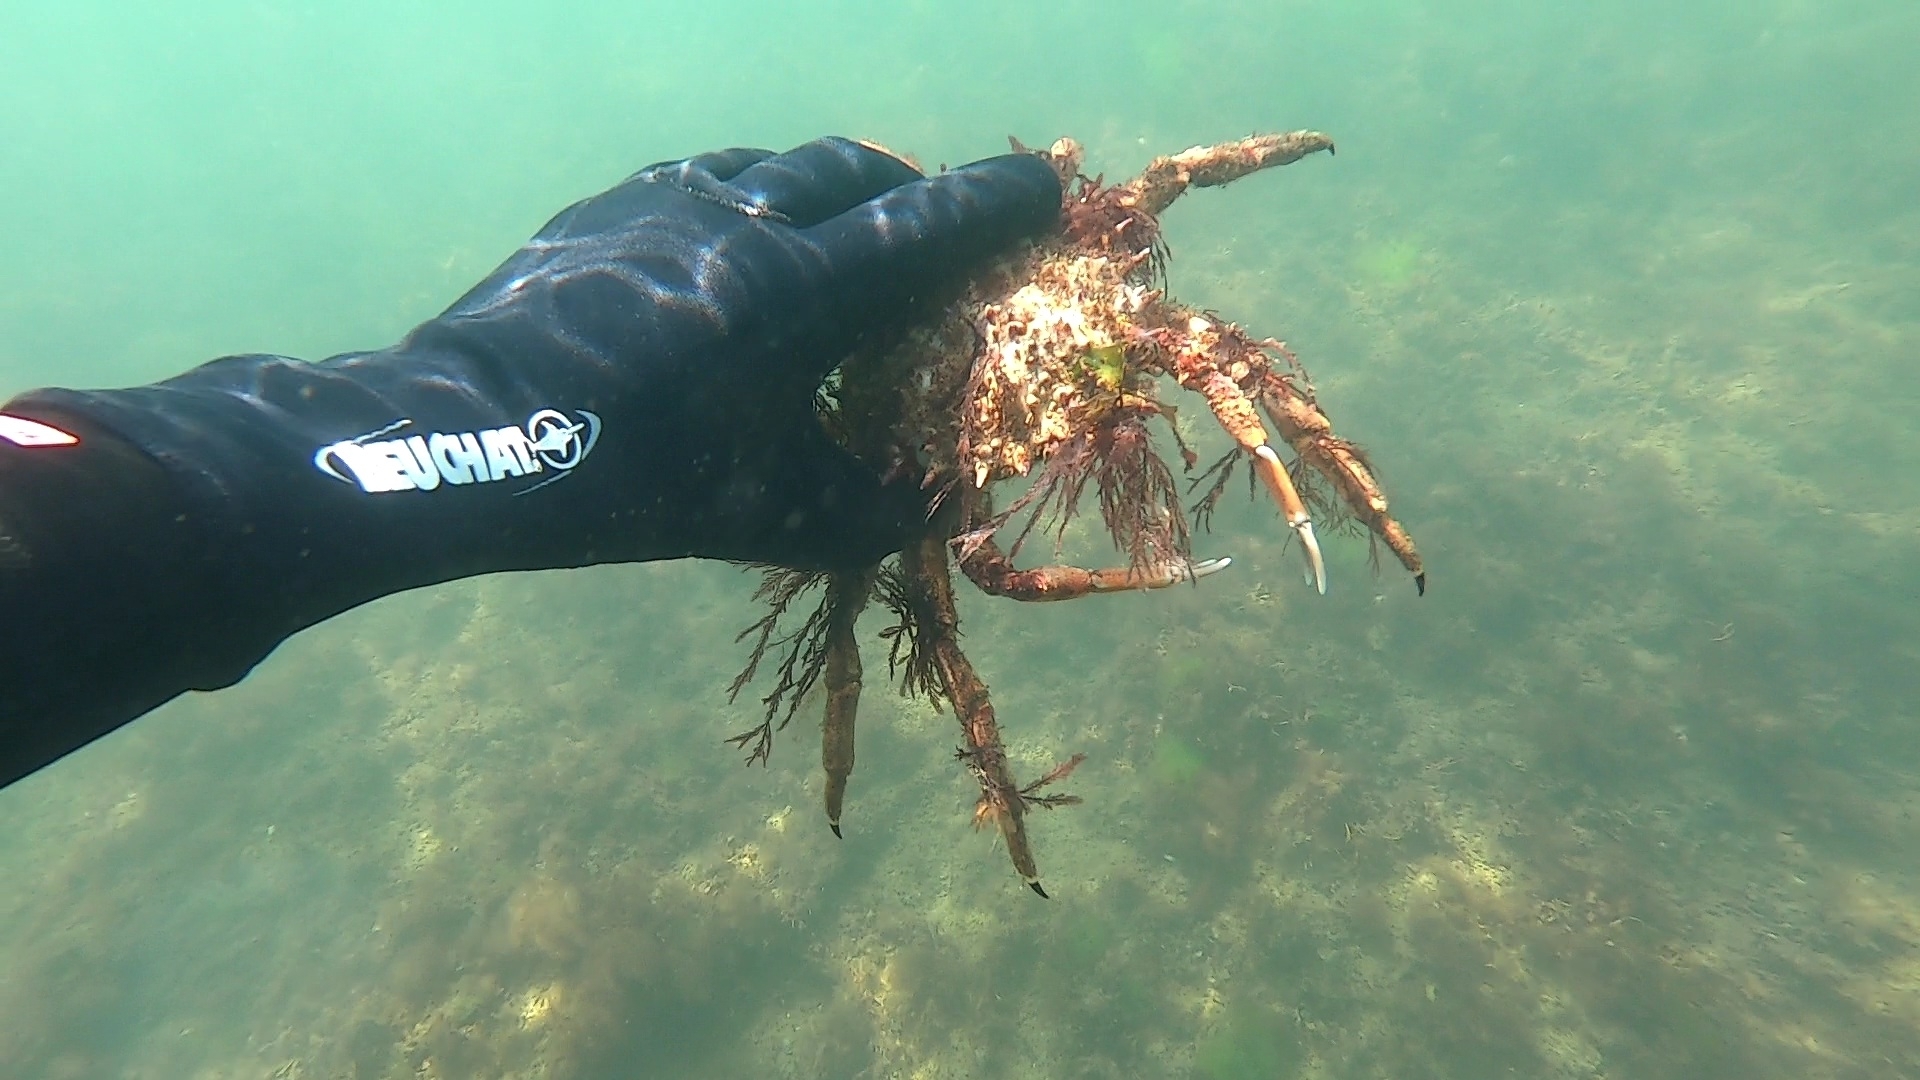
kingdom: Animalia
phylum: Arthropoda
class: Malacostraca
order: Decapoda
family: Majidae
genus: Maja
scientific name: Maja brachydactyla
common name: Common spider crab
